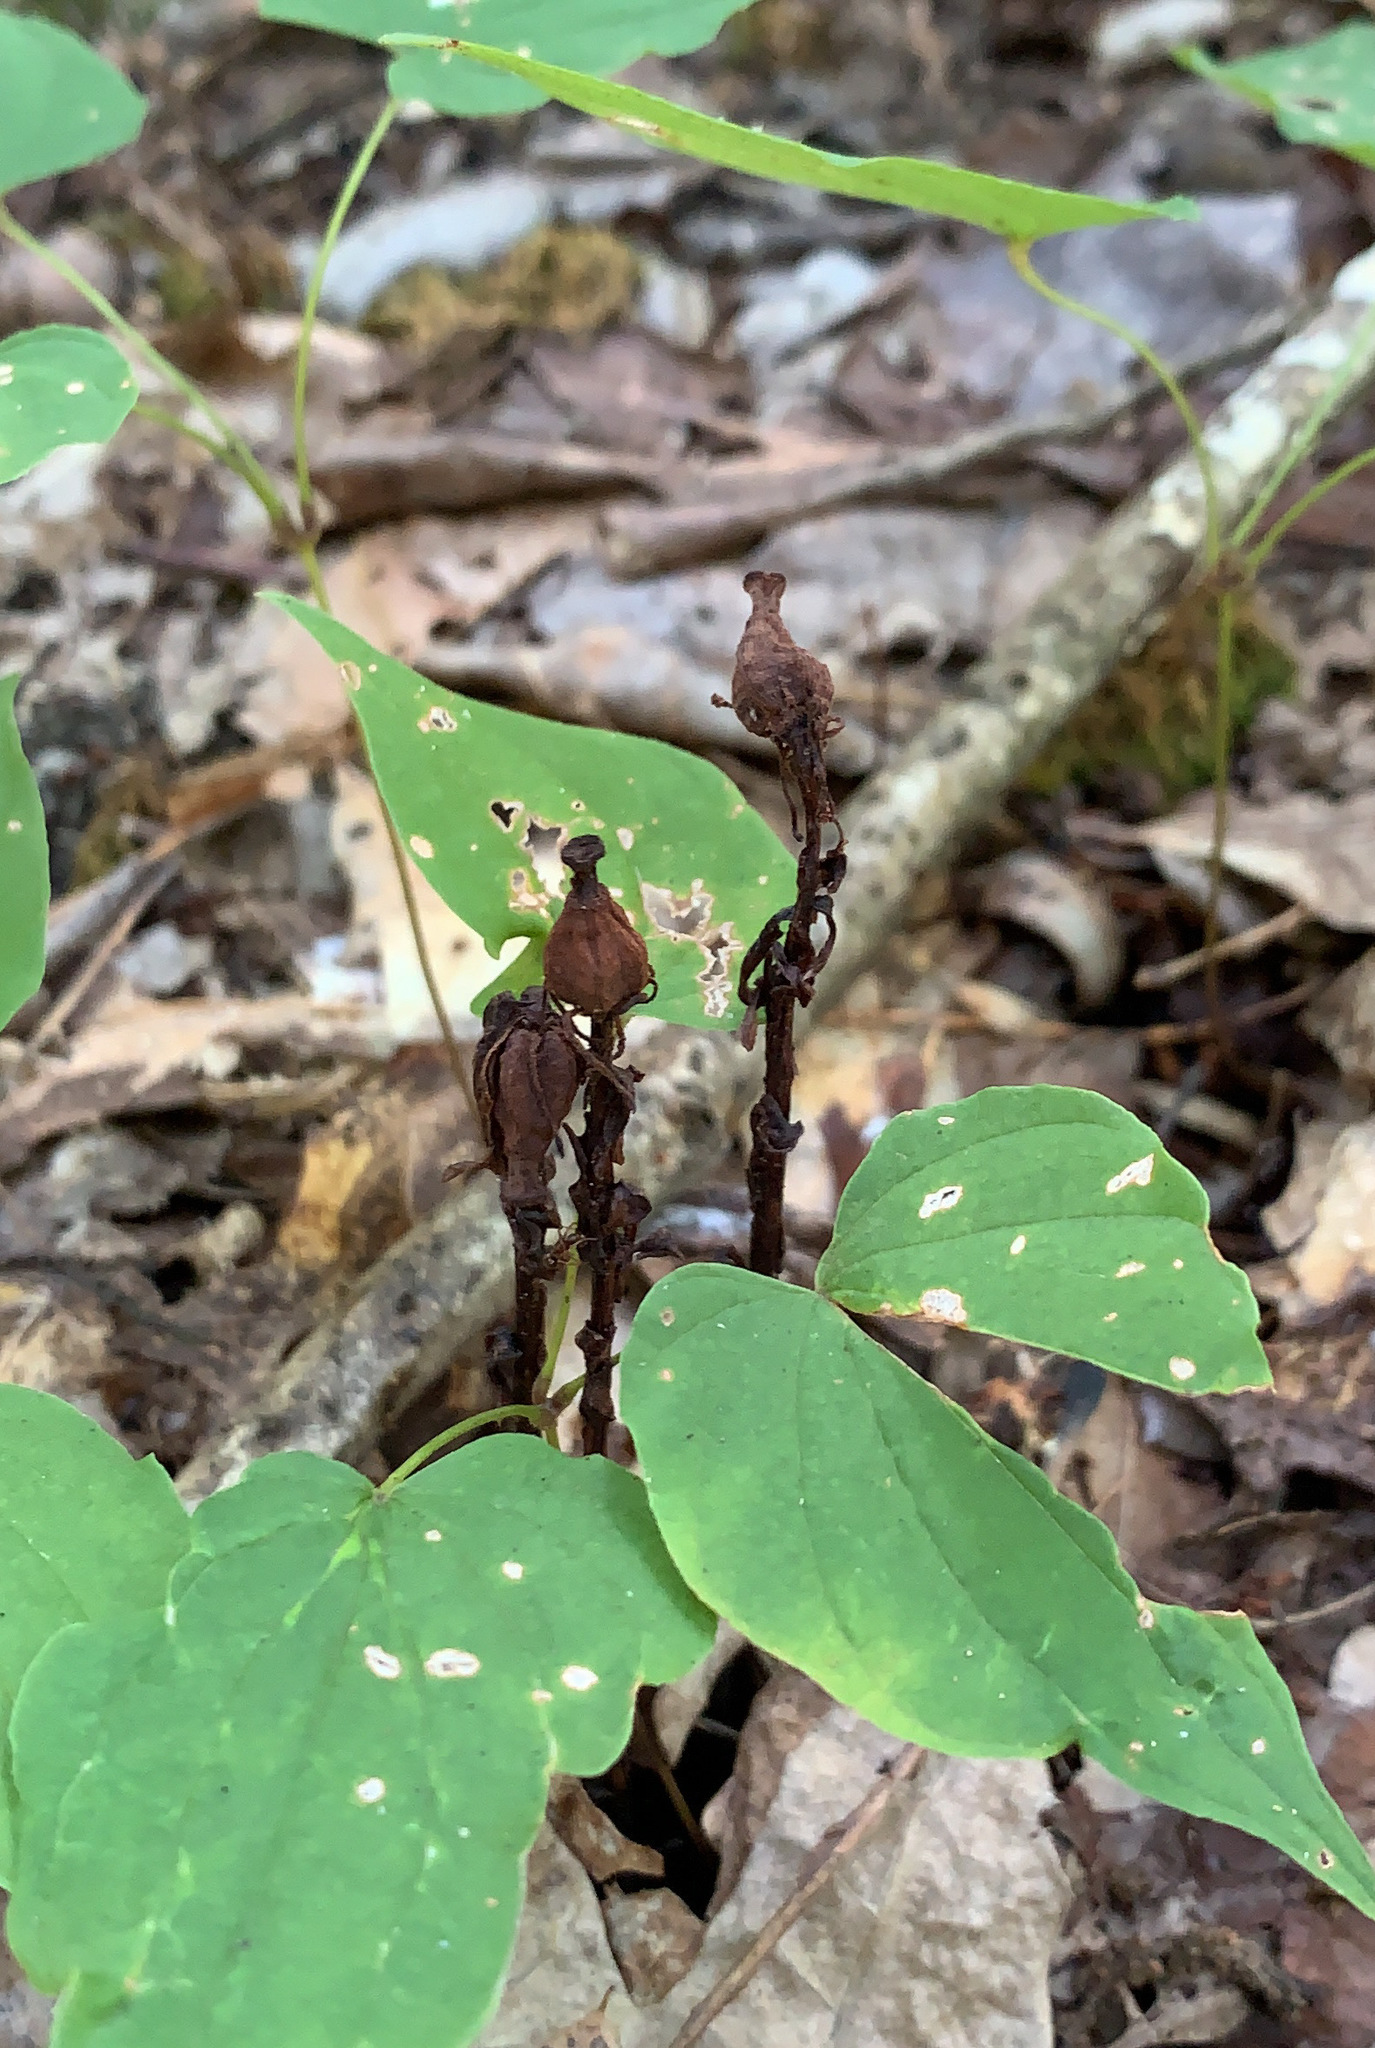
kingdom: Plantae
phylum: Tracheophyta
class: Magnoliopsida
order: Ericales
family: Ericaceae
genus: Monotropa
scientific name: Monotropa uniflora
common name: Convulsion root
